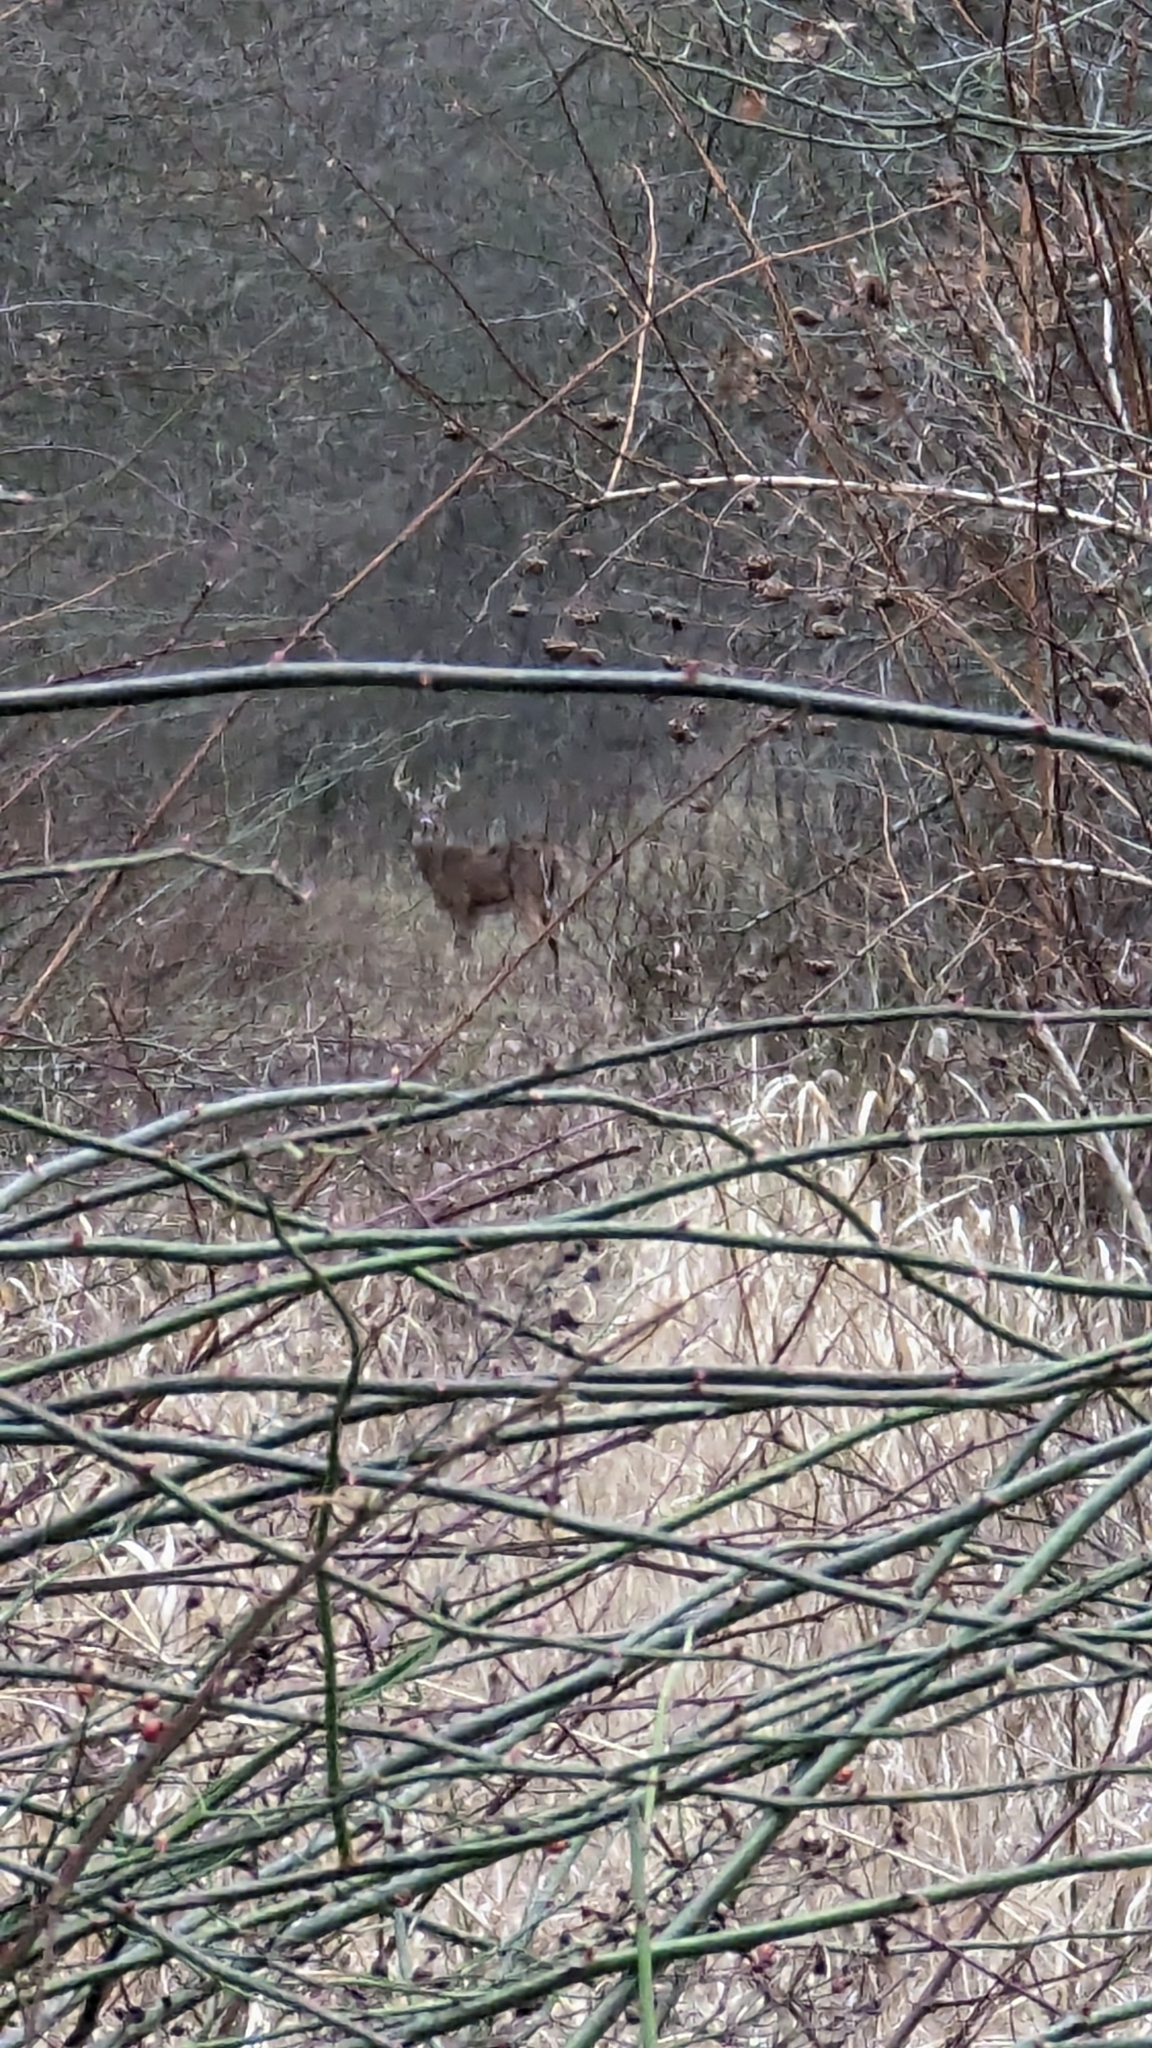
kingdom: Animalia
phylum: Chordata
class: Mammalia
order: Artiodactyla
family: Cervidae
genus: Odocoileus
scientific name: Odocoileus virginianus
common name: White-tailed deer
